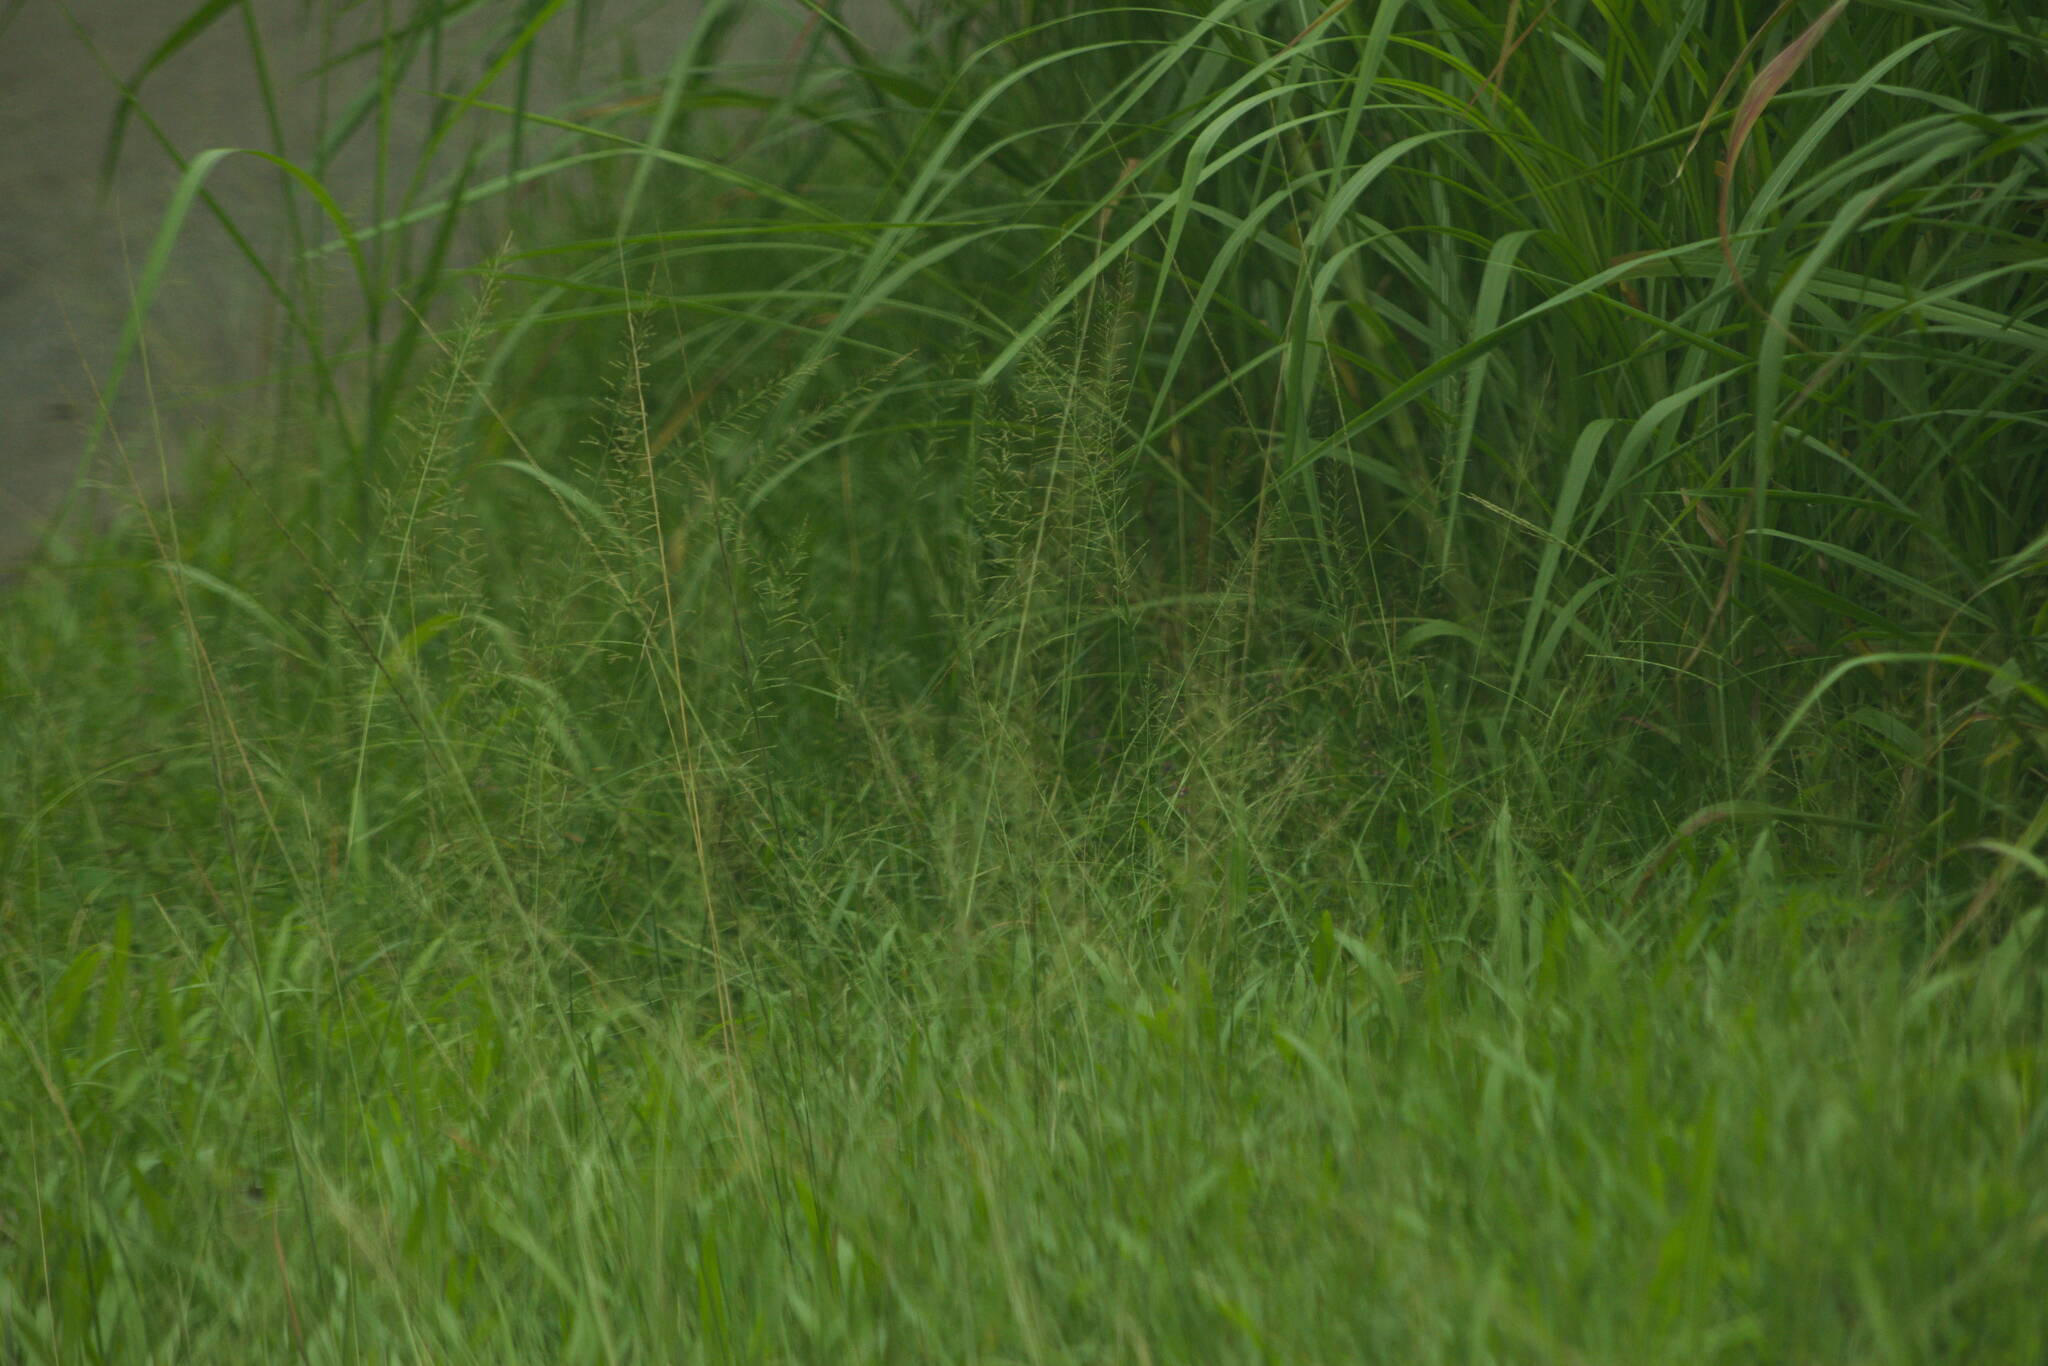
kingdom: Plantae
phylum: Tracheophyta
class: Liliopsida
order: Poales
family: Poaceae
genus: Sporobolus
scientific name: Sporobolus diandrus
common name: Tussock dropseed
